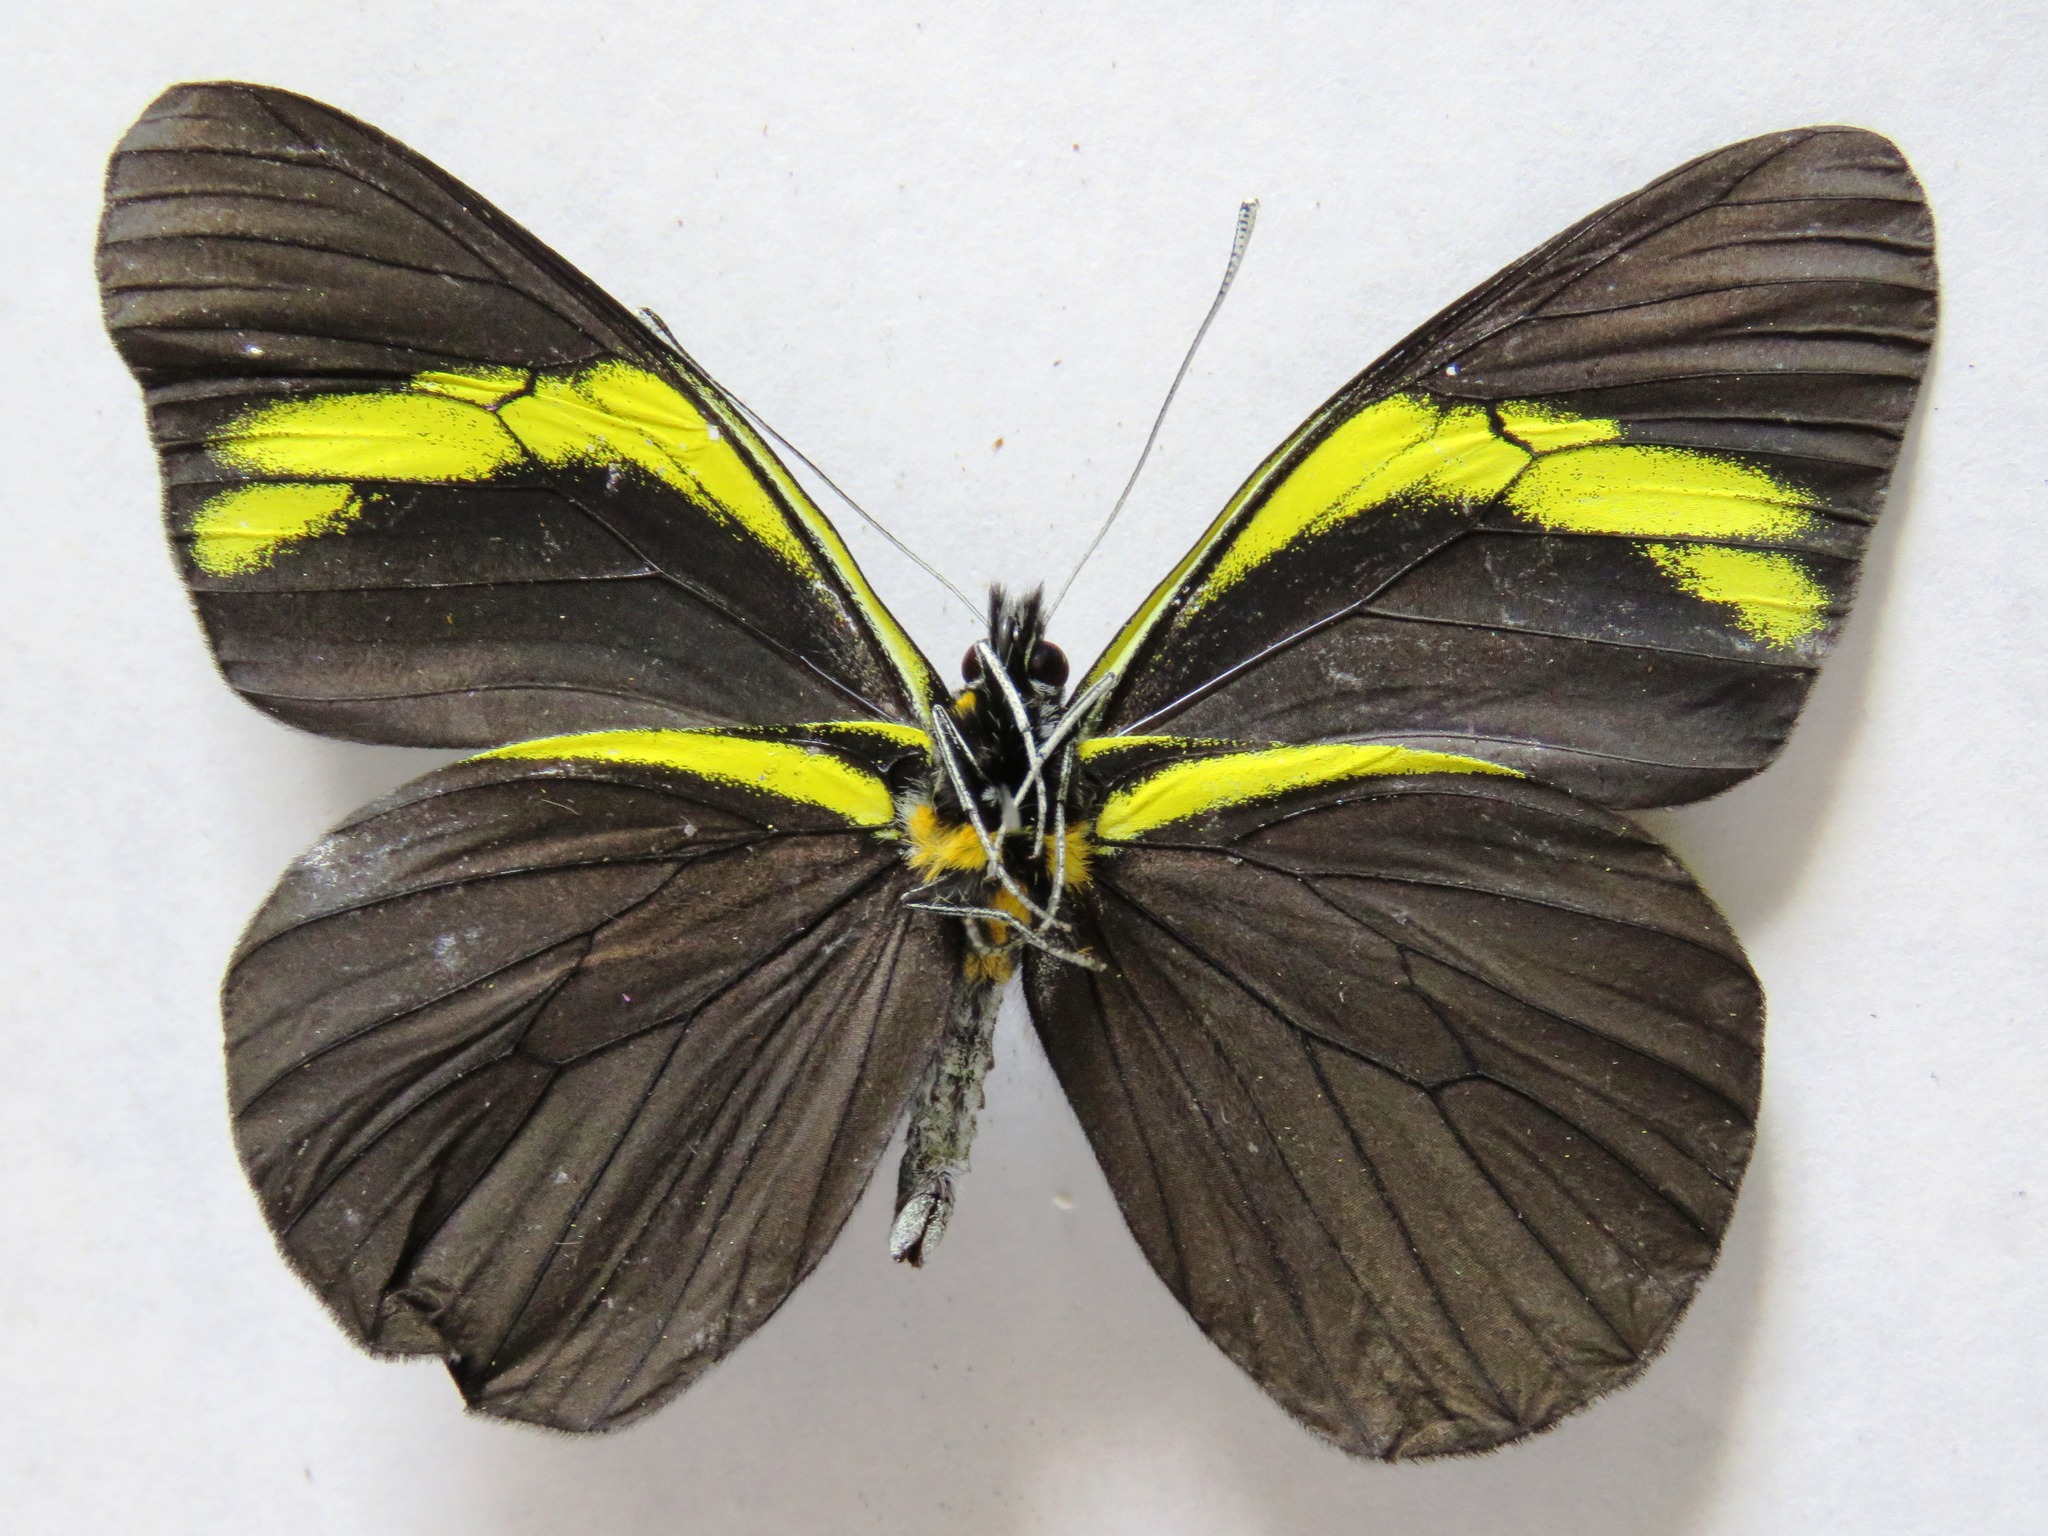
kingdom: Animalia
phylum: Arthropoda
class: Insecta
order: Lepidoptera
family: Pieridae
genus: Pereute
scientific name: Pereute charops
